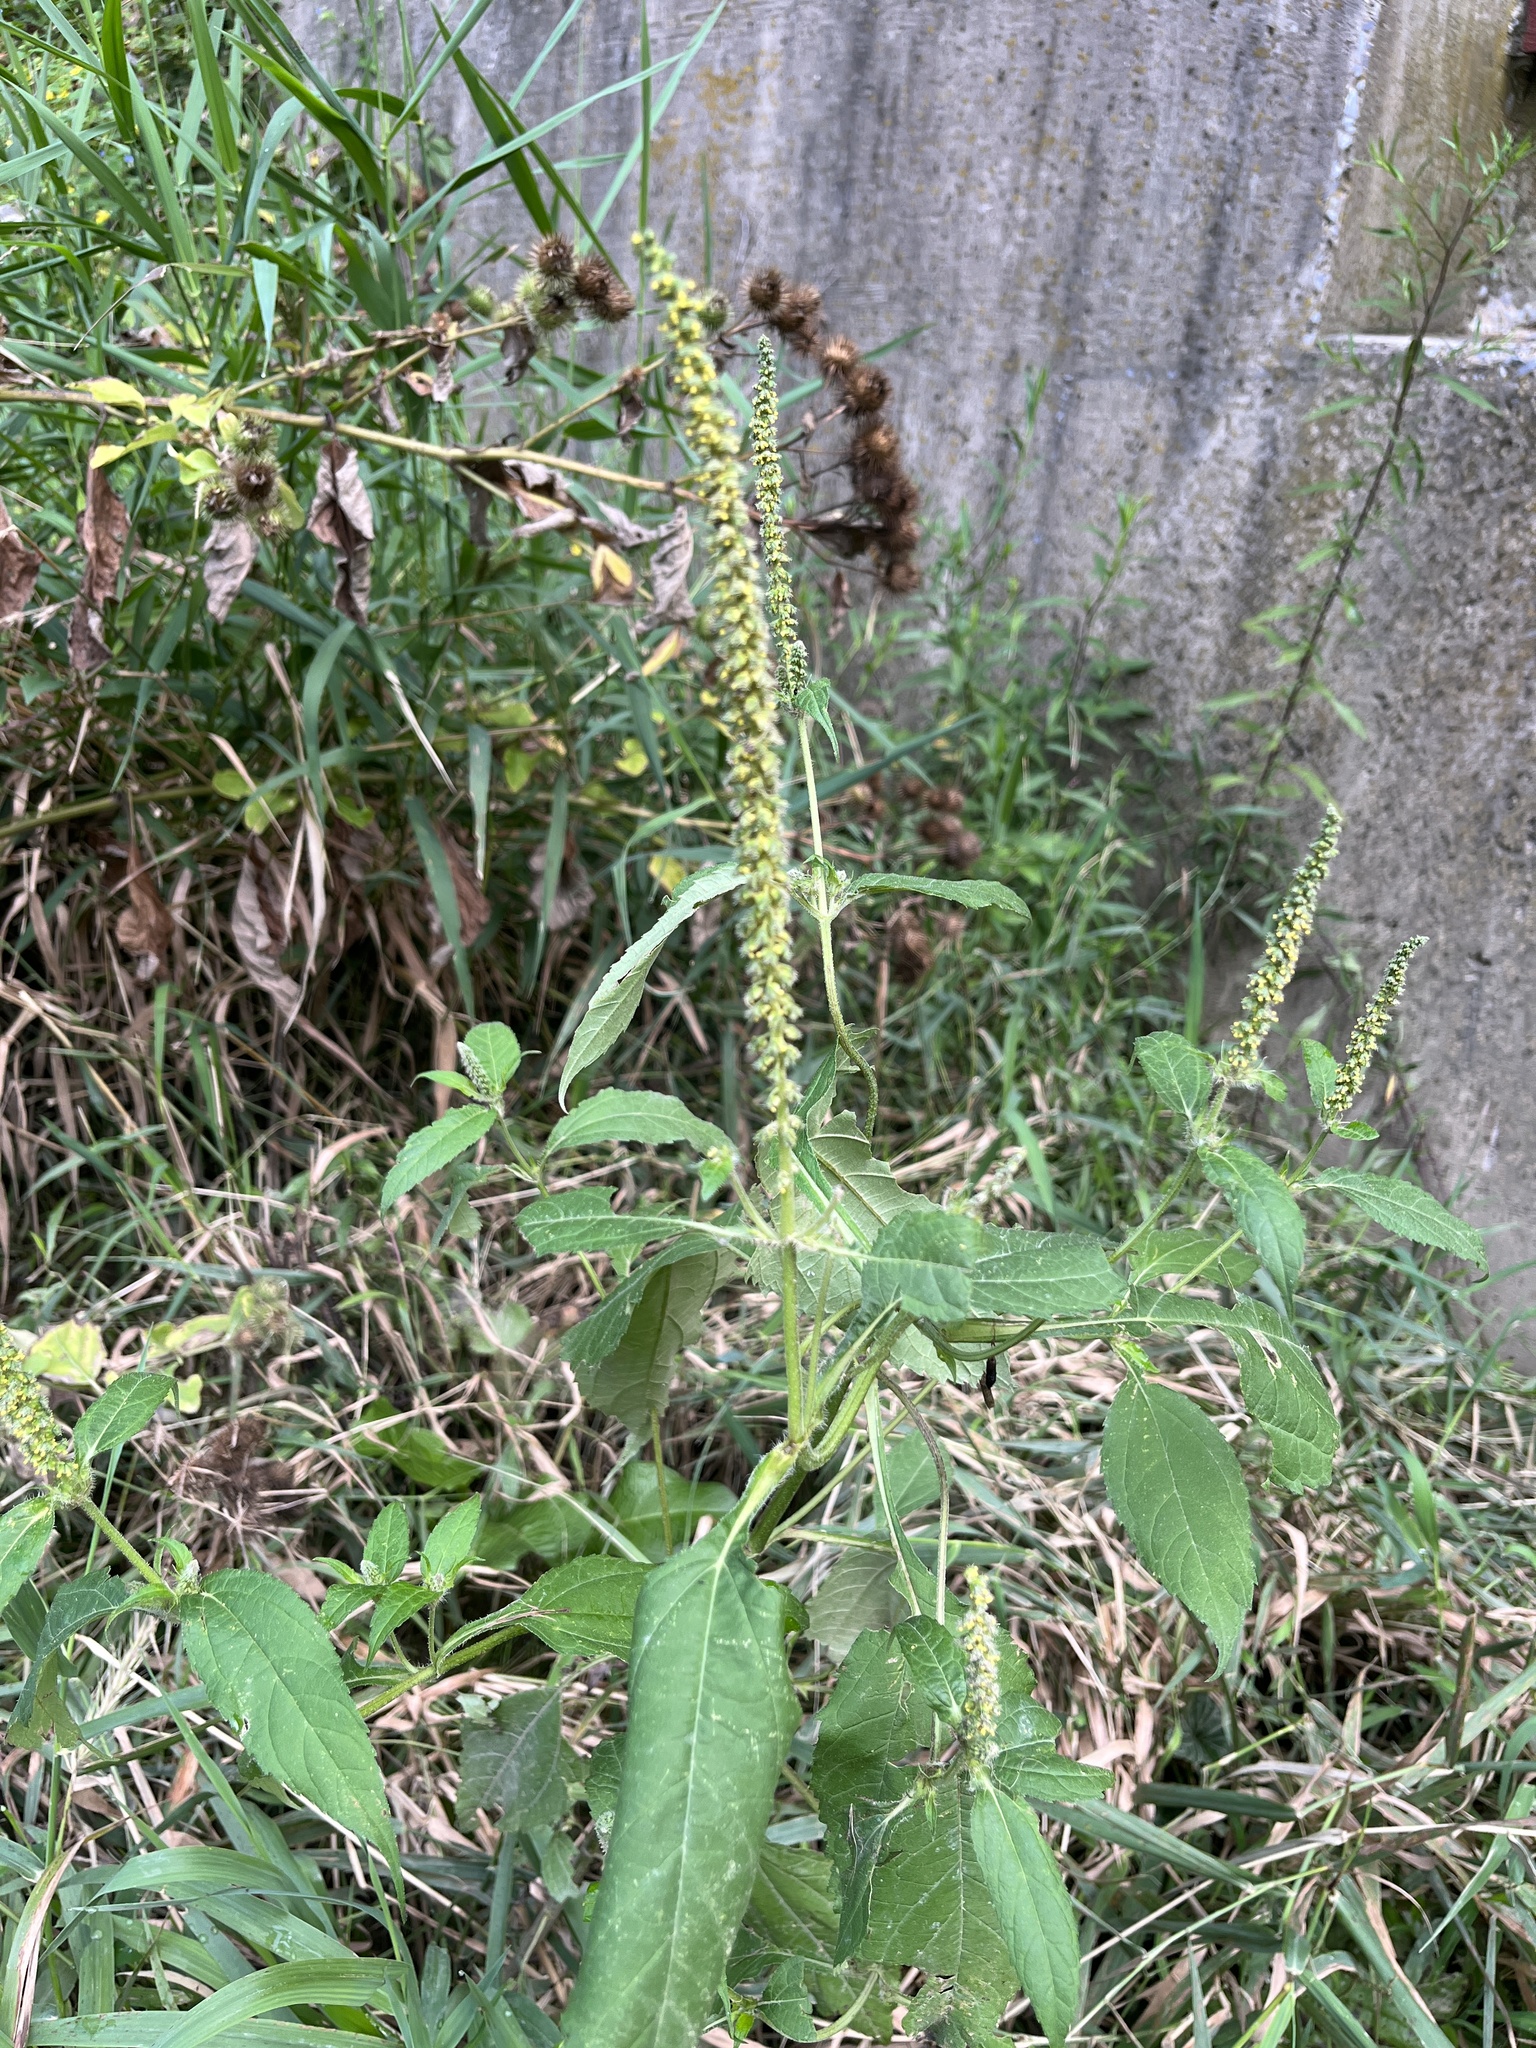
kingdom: Plantae
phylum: Tracheophyta
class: Magnoliopsida
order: Asterales
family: Asteraceae
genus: Ambrosia
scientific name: Ambrosia trifida
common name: Giant ragweed
